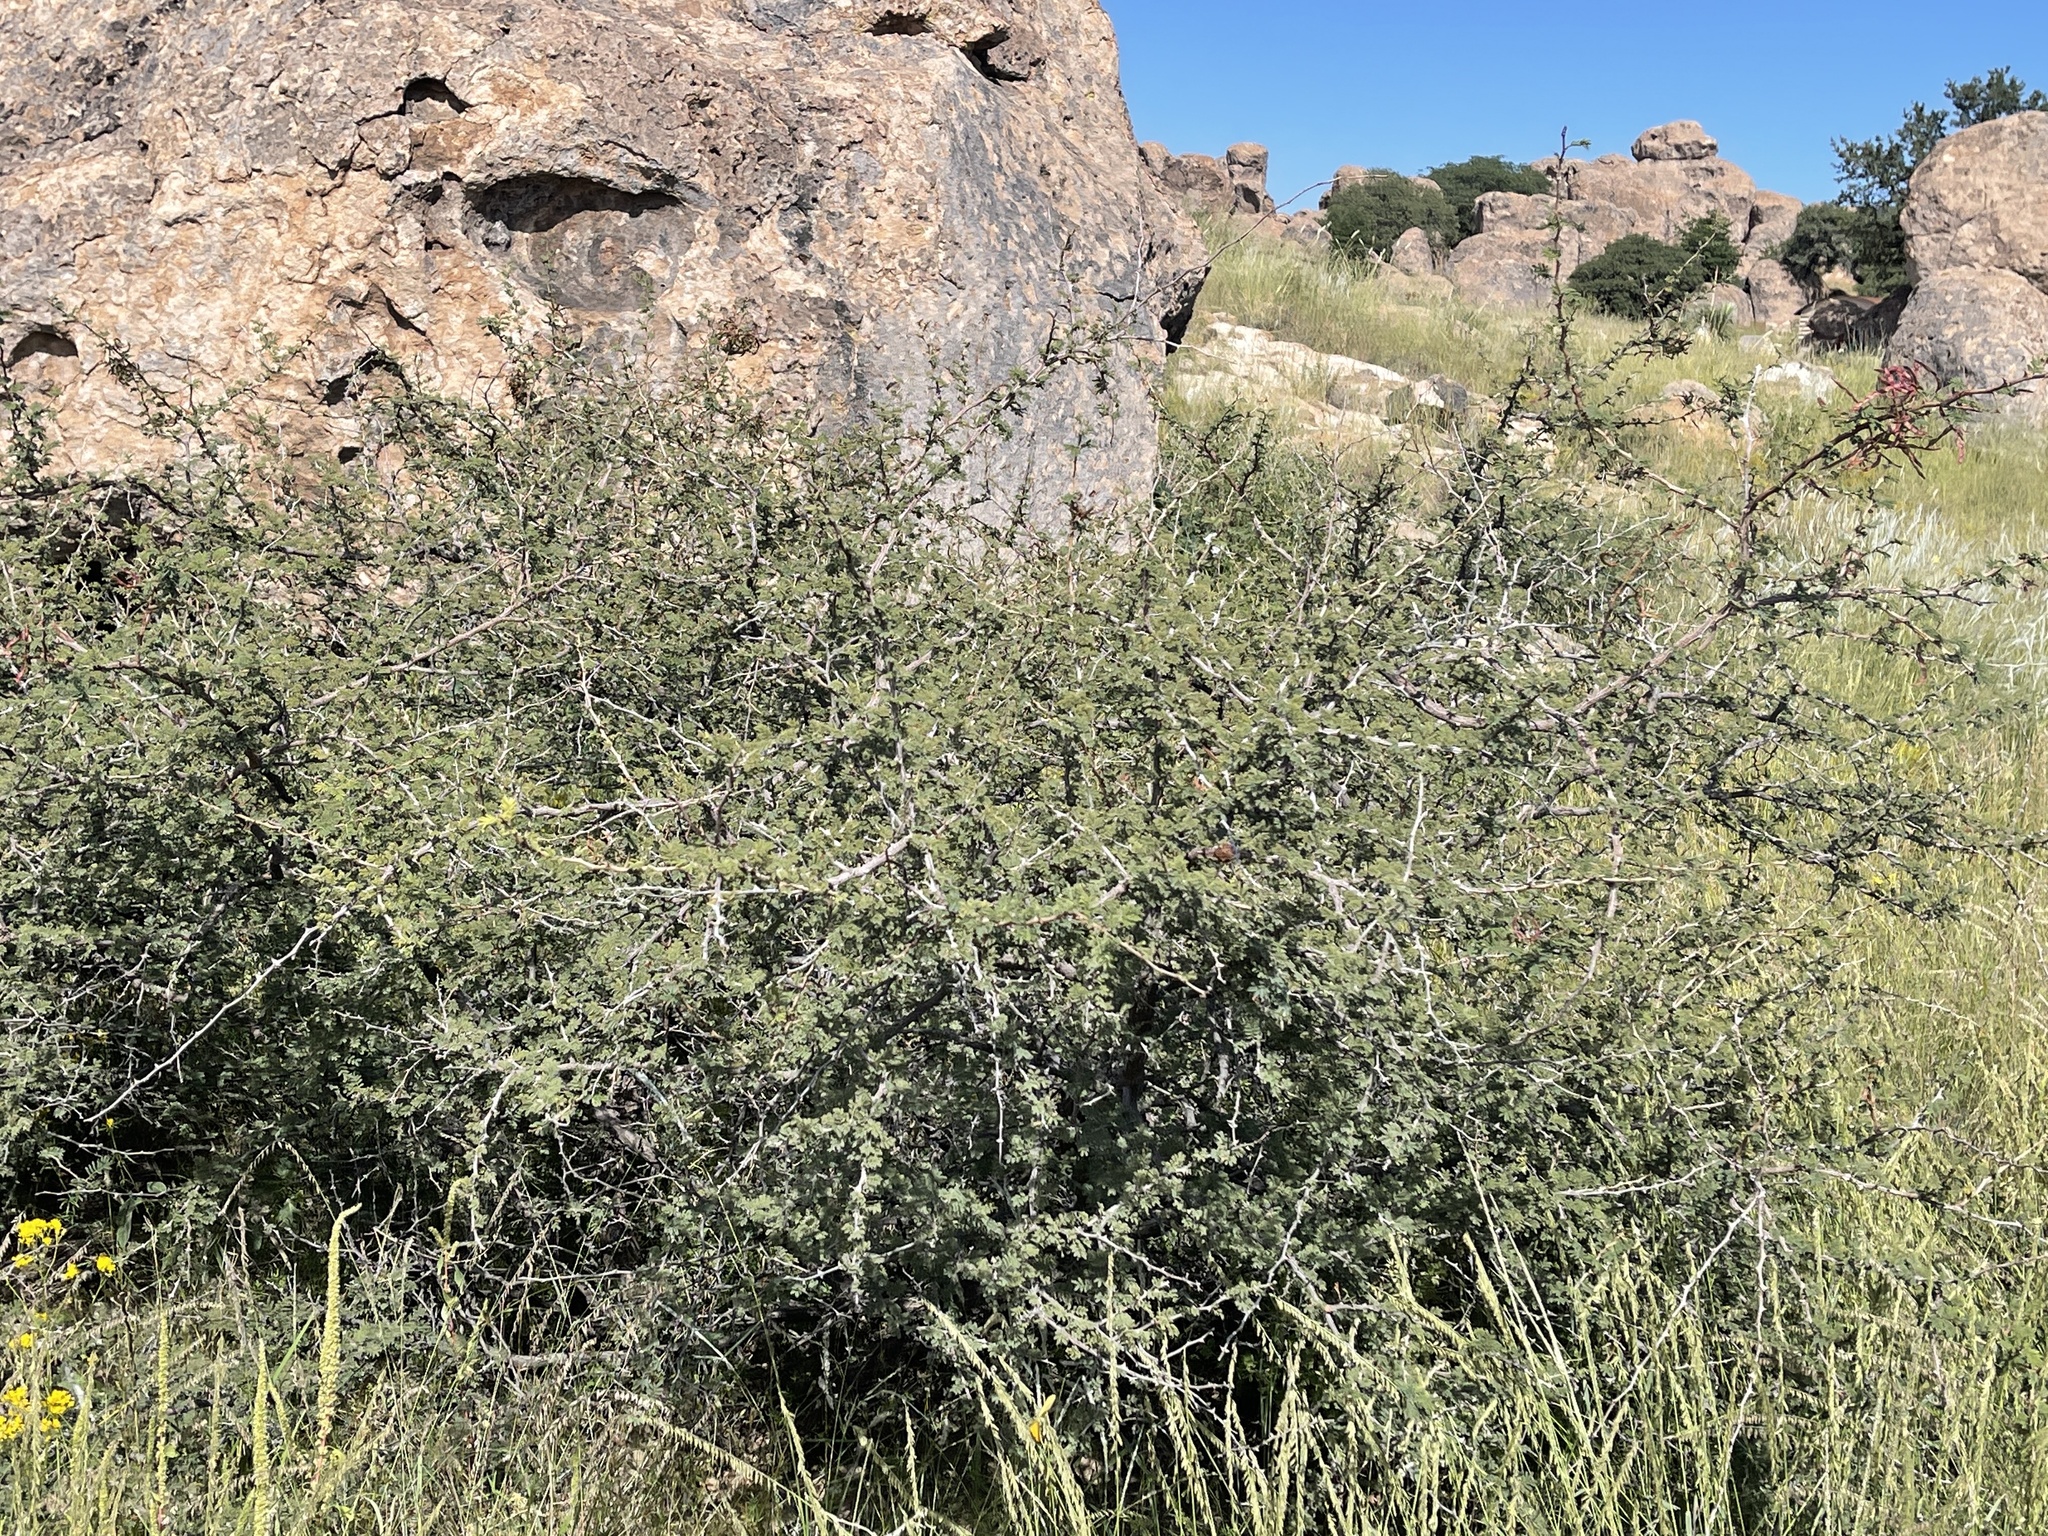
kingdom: Plantae
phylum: Tracheophyta
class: Magnoliopsida
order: Fabales
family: Fabaceae
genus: Mimosa
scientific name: Mimosa biuncifera
